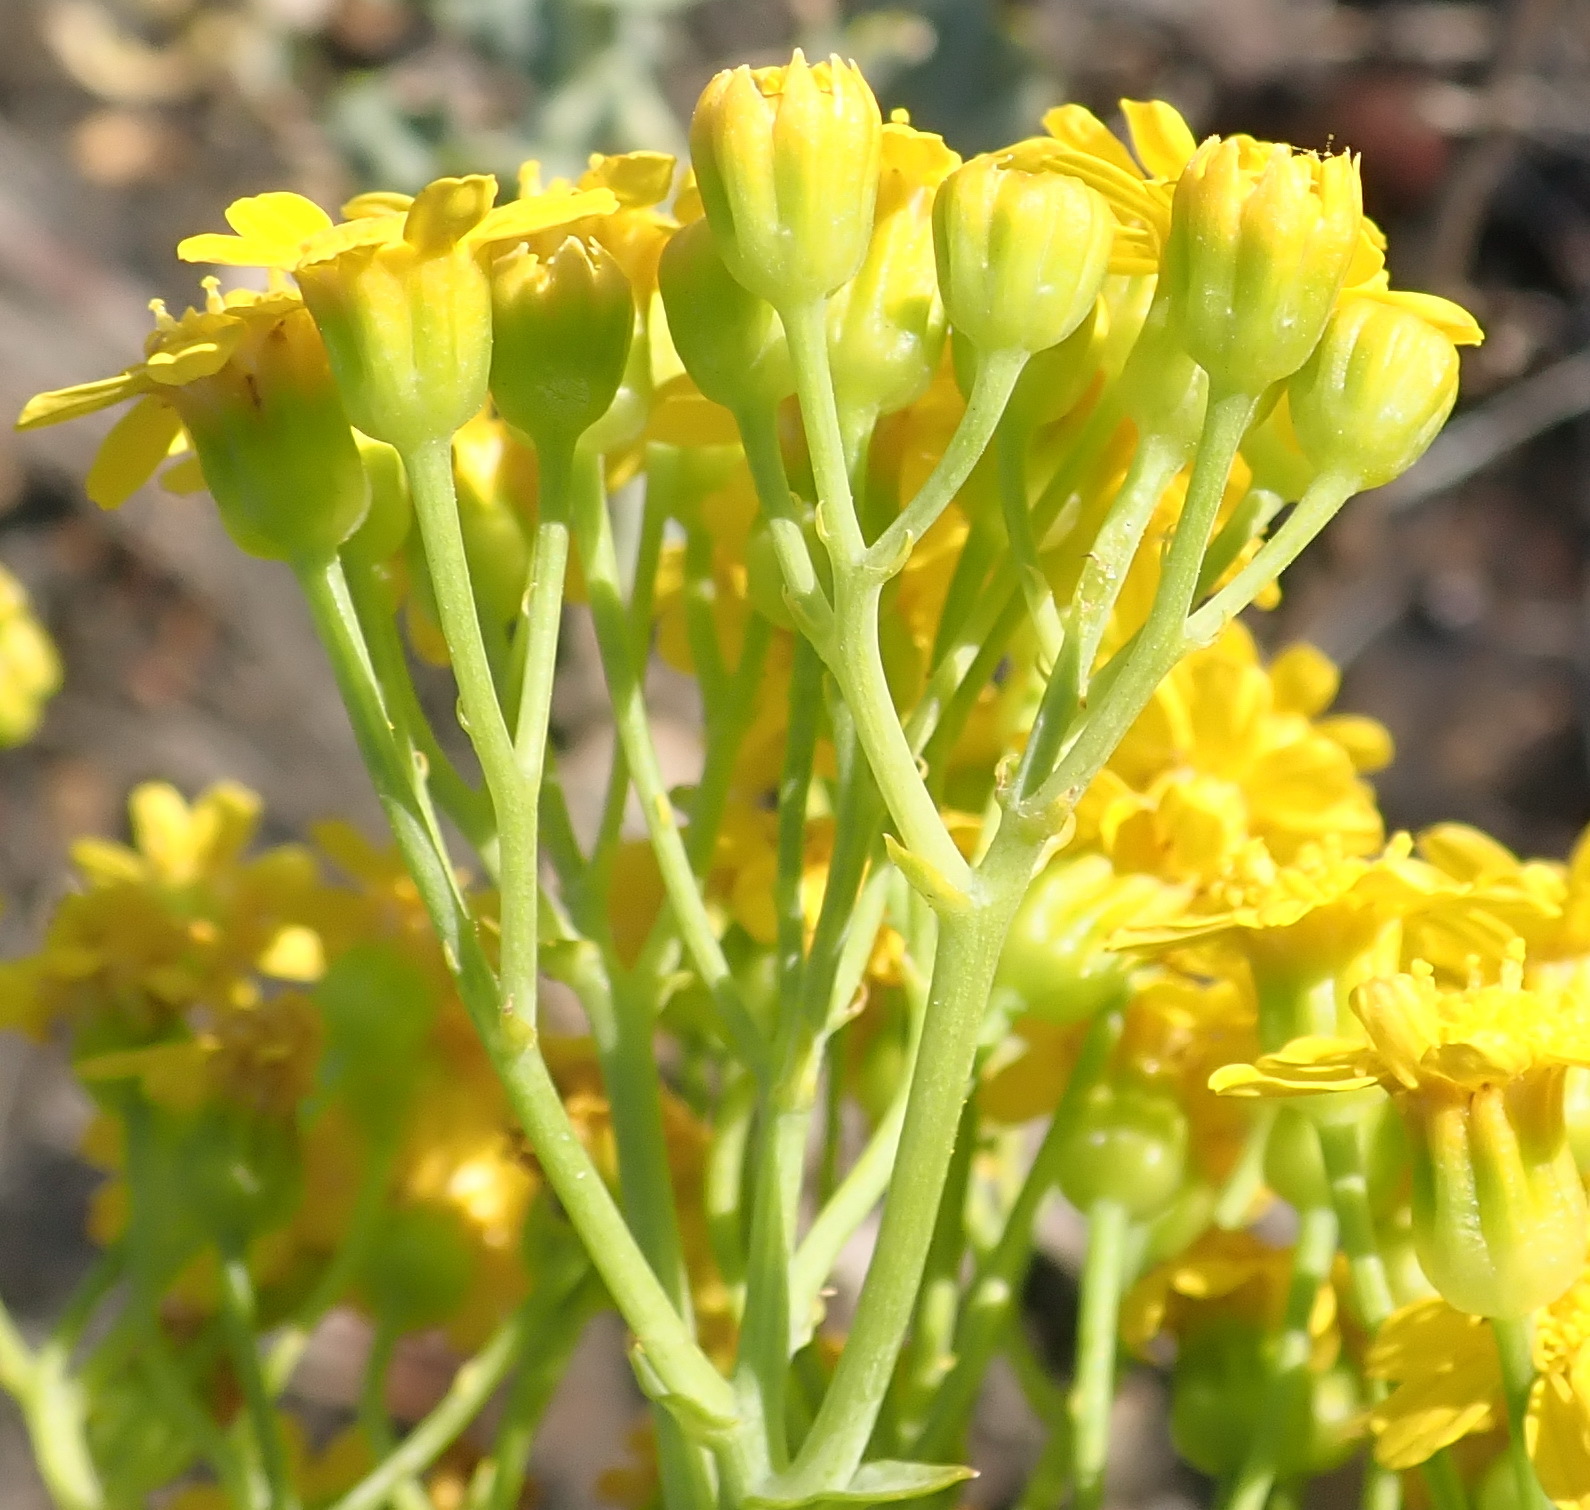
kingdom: Plantae
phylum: Tracheophyta
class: Magnoliopsida
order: Asterales
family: Asteraceae
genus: Othonna
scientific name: Othonna parviflora
